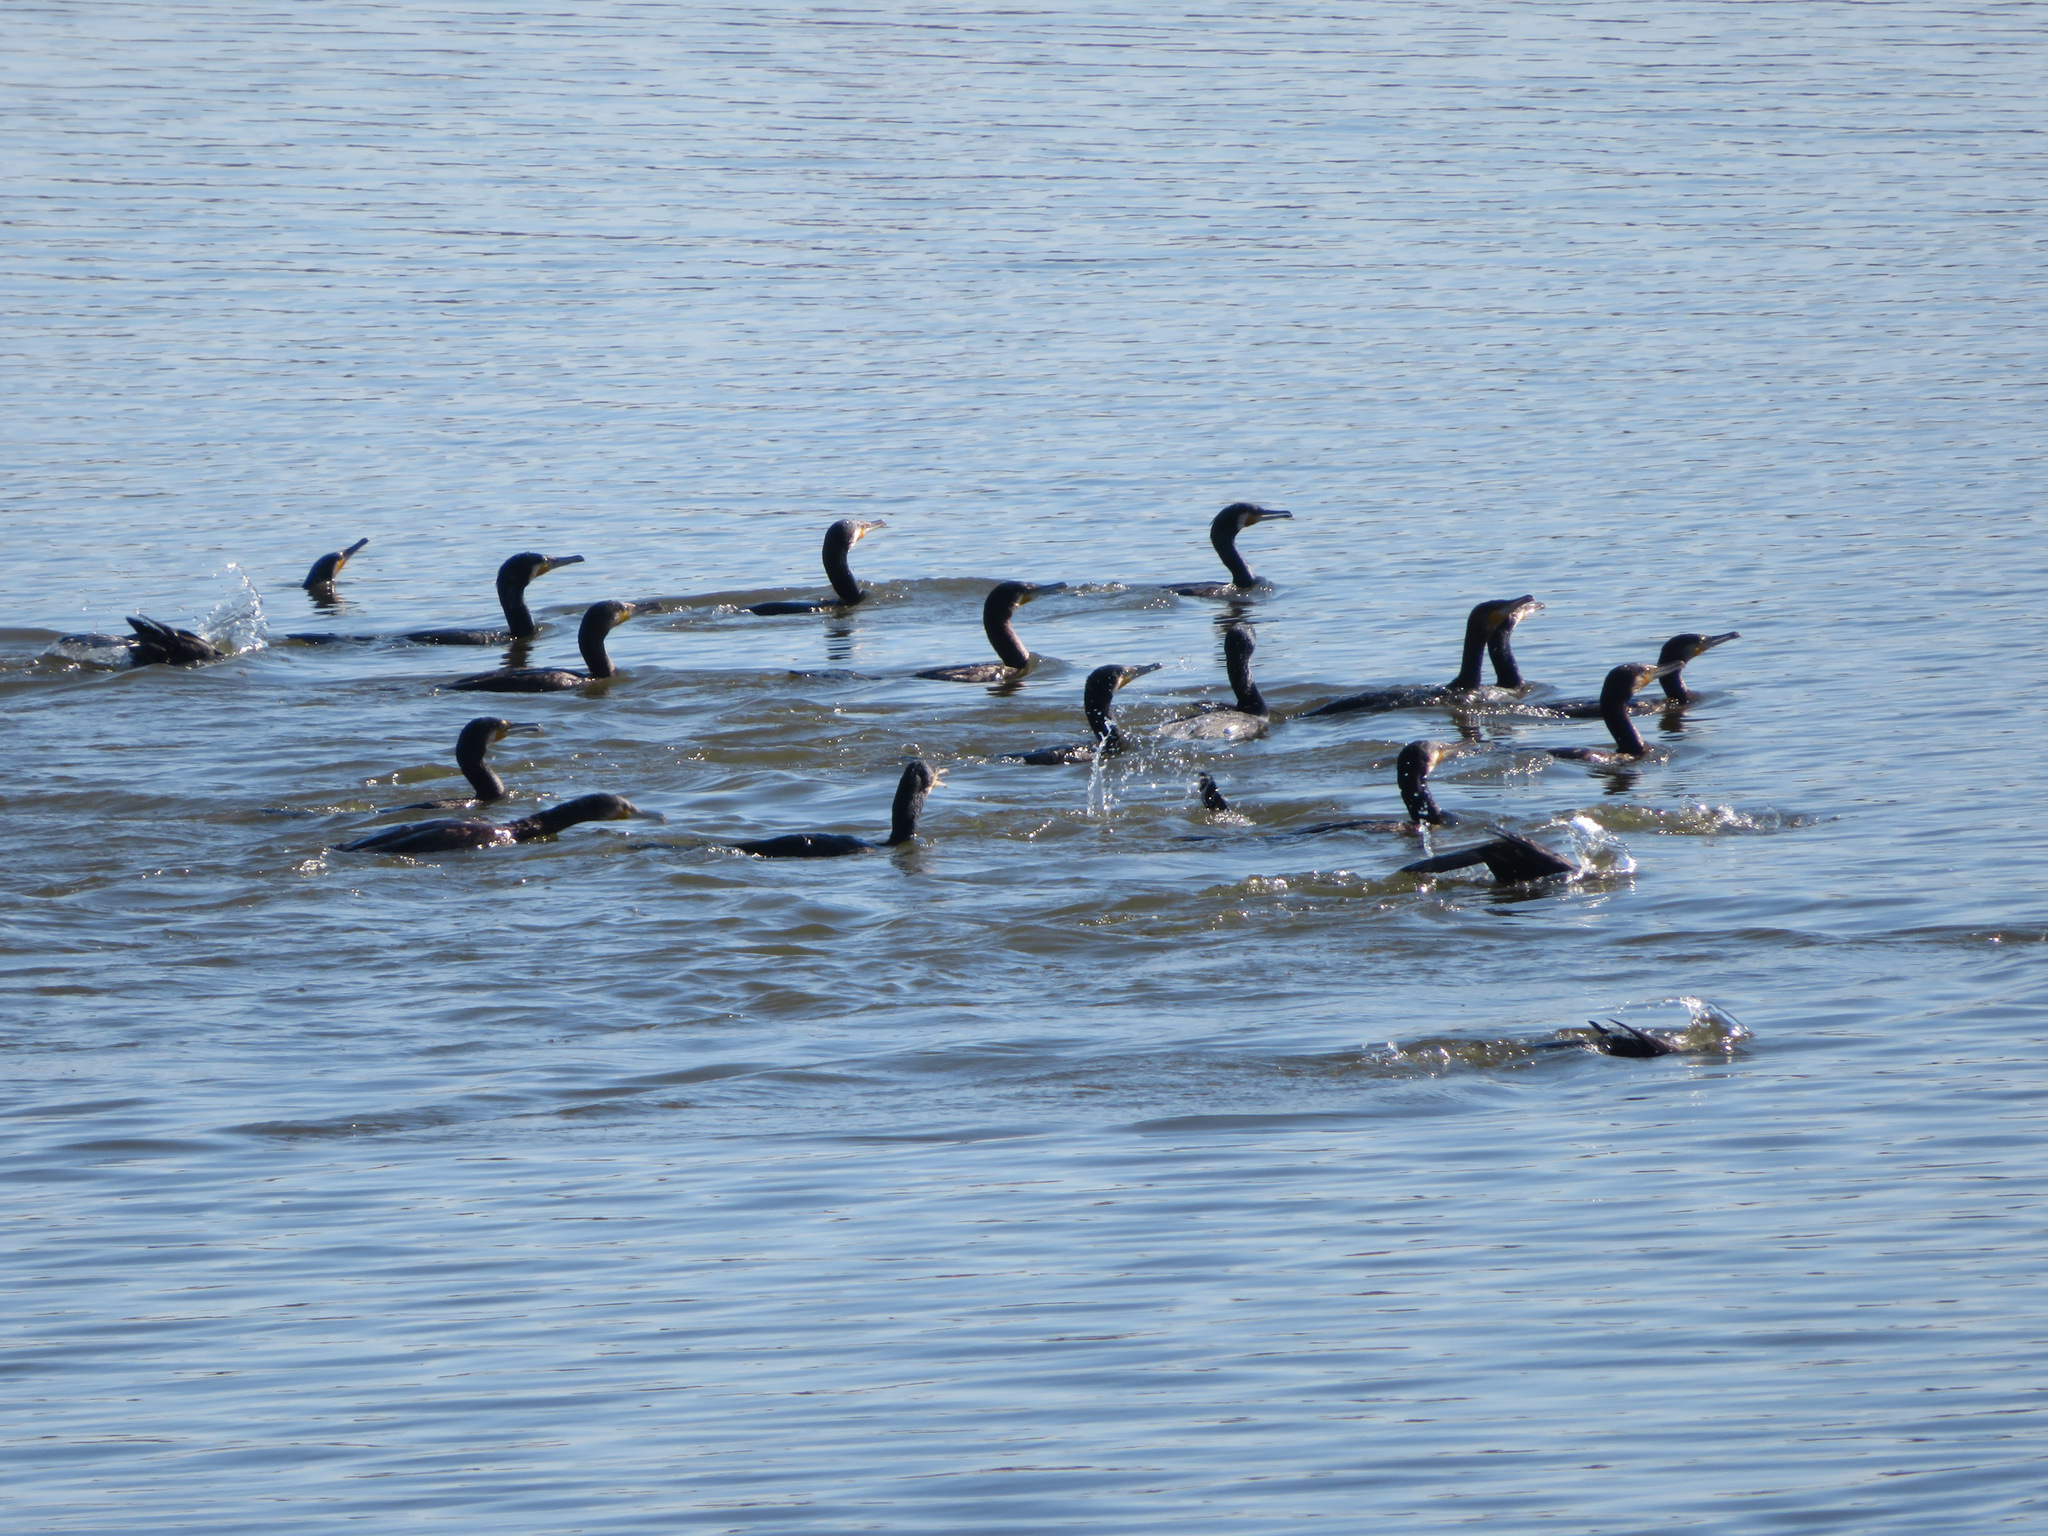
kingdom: Animalia
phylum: Chordata
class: Aves
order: Suliformes
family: Phalacrocoracidae
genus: Phalacrocorax
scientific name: Phalacrocorax carbo
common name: Great cormorant
